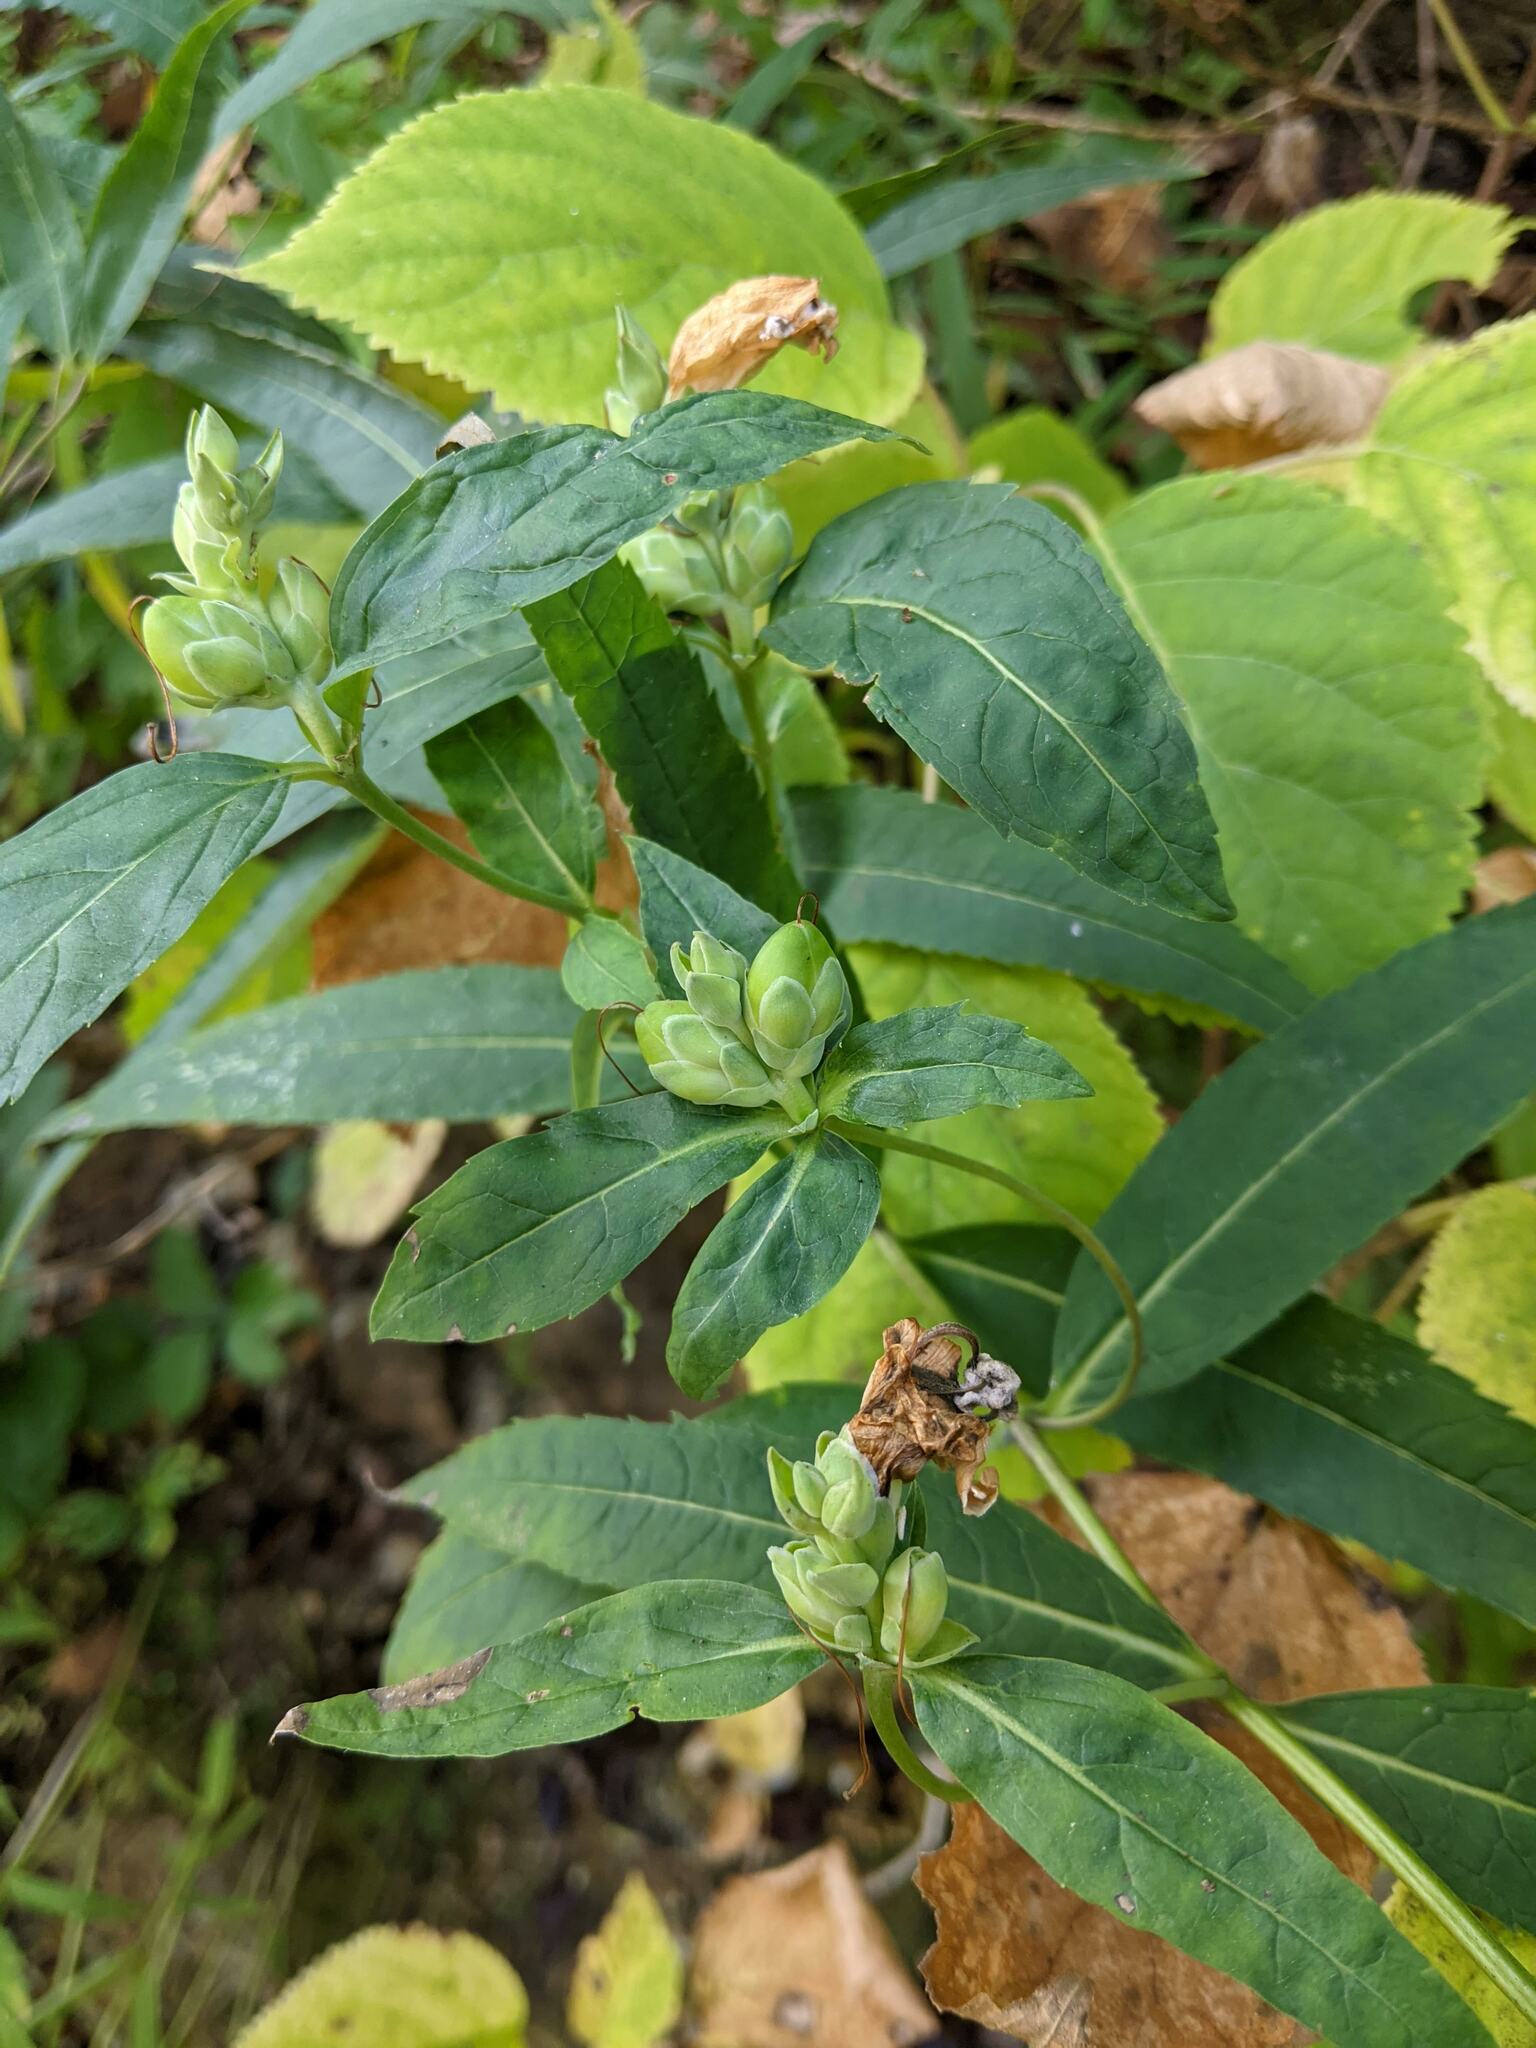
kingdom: Plantae
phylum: Tracheophyta
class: Magnoliopsida
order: Lamiales
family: Plantaginaceae
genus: Chelone
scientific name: Chelone glabra
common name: Snakehead
